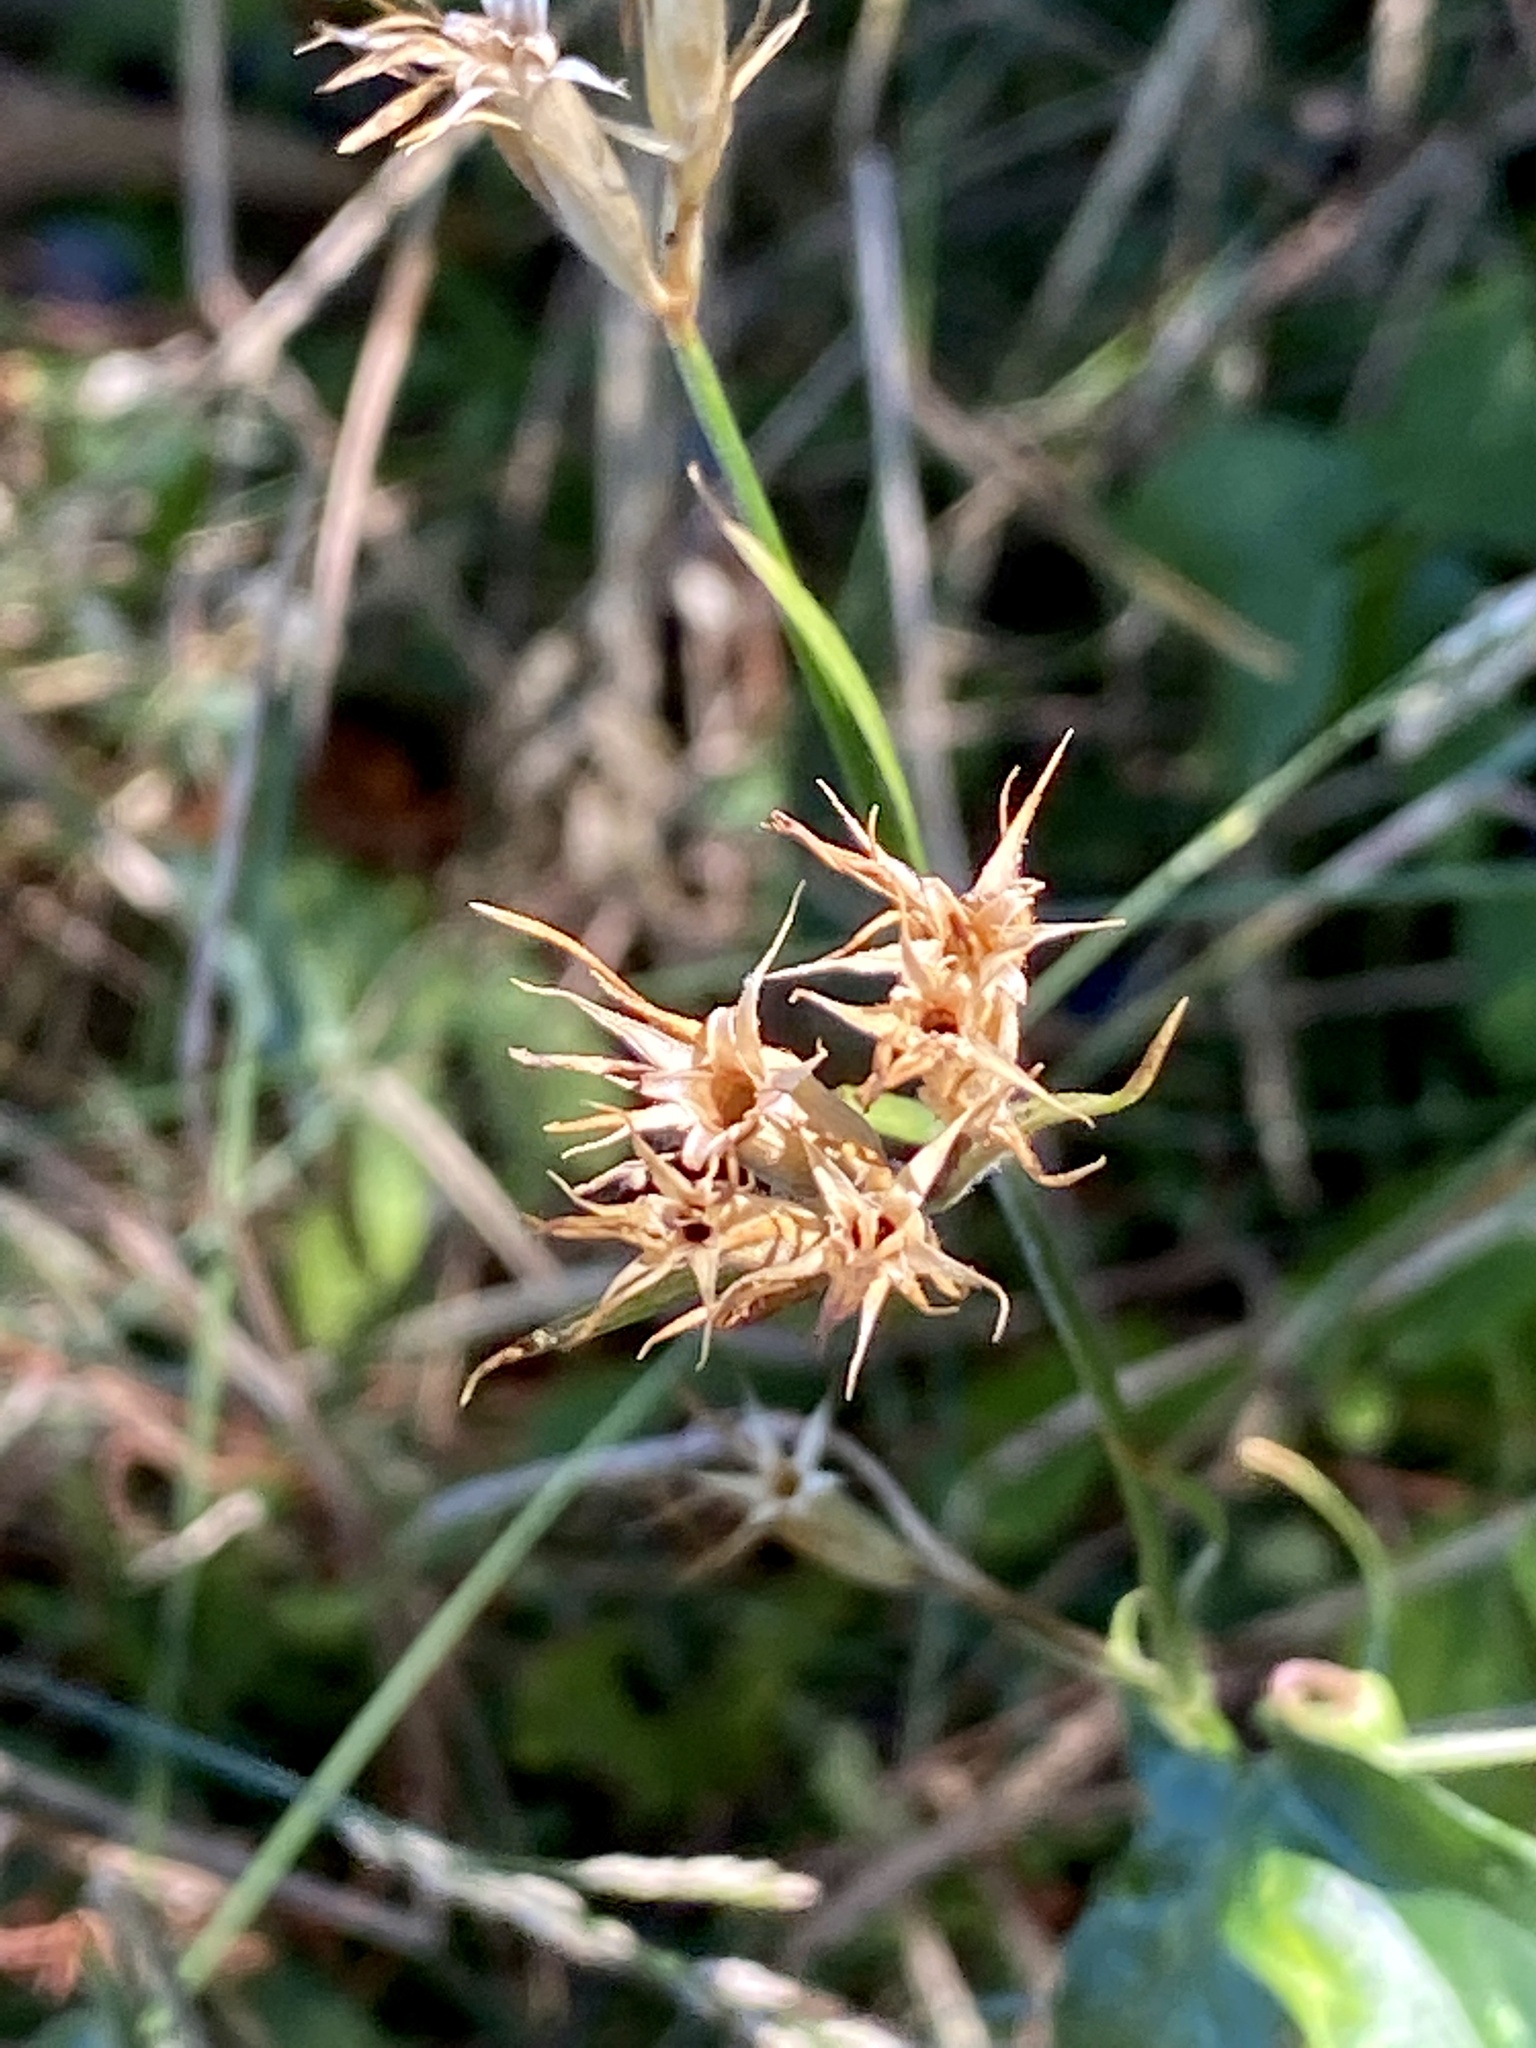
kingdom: Plantae
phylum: Tracheophyta
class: Magnoliopsida
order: Caryophyllales
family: Caryophyllaceae
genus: Dianthus
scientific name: Dianthus armeria
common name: Deptford pink
